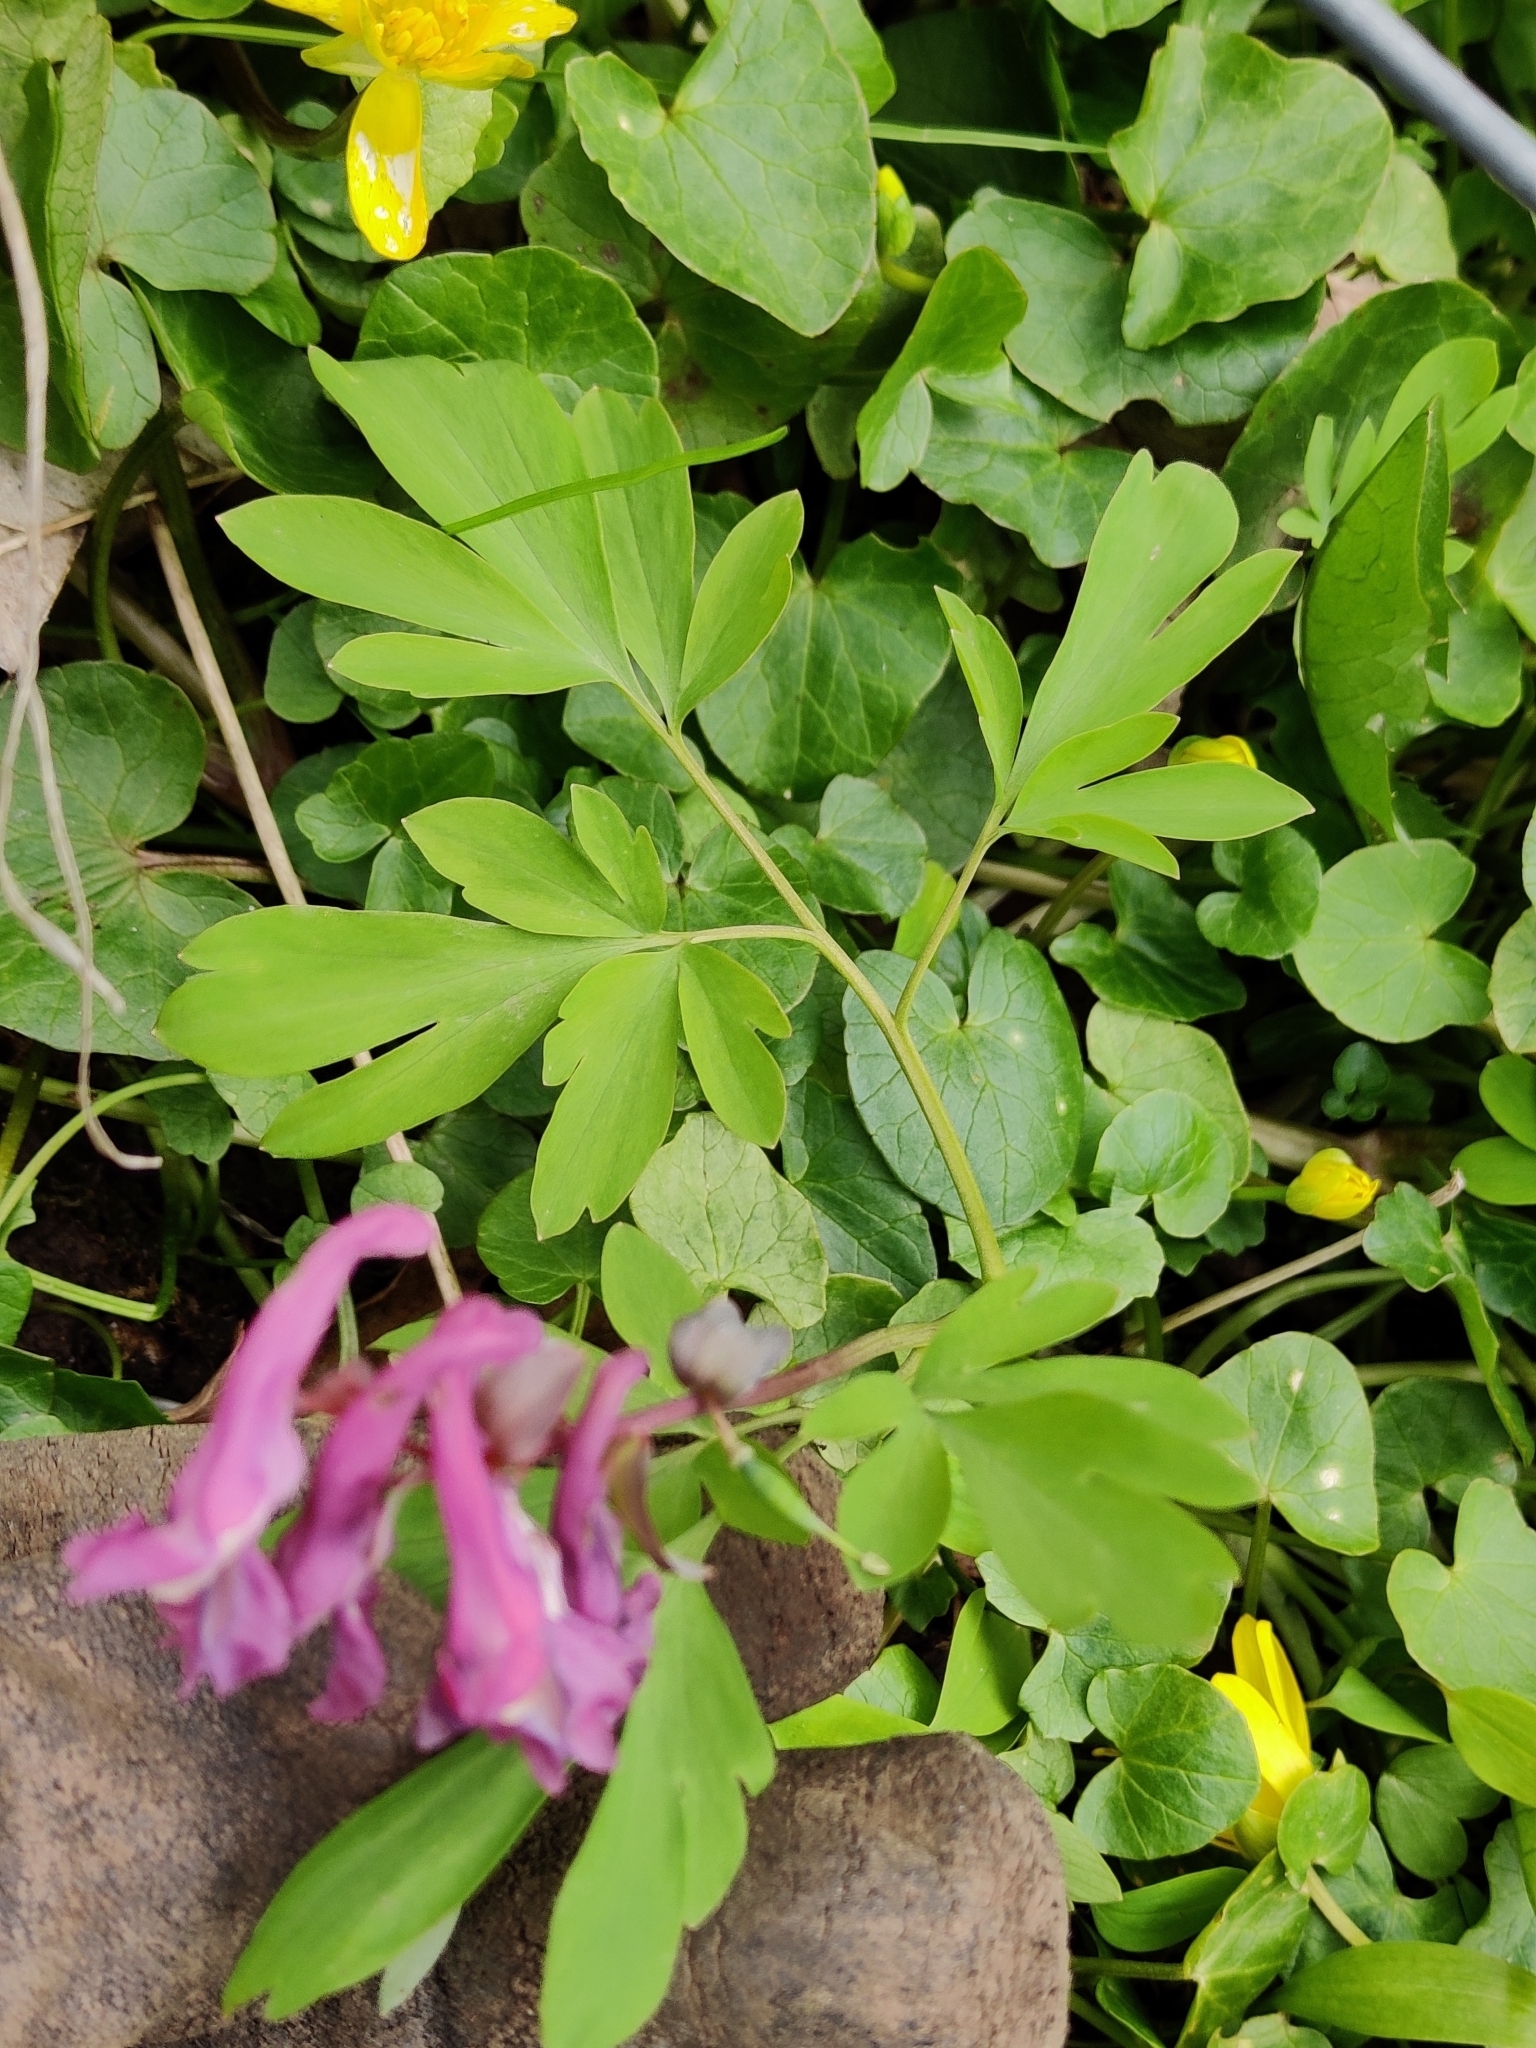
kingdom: Plantae
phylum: Tracheophyta
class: Magnoliopsida
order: Ranunculales
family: Papaveraceae
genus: Corydalis
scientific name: Corydalis solida
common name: Bird-in-a-bush
